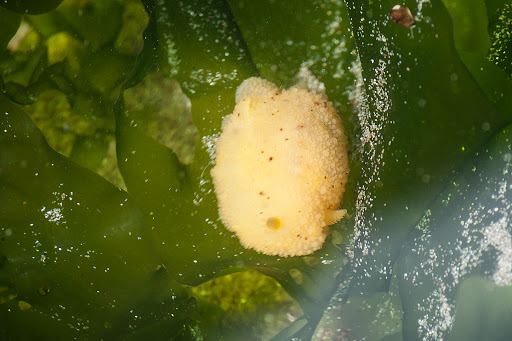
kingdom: Animalia
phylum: Mollusca
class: Gastropoda
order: Nudibranchia
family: Dorididae
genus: Doris
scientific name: Doris montereyensis
